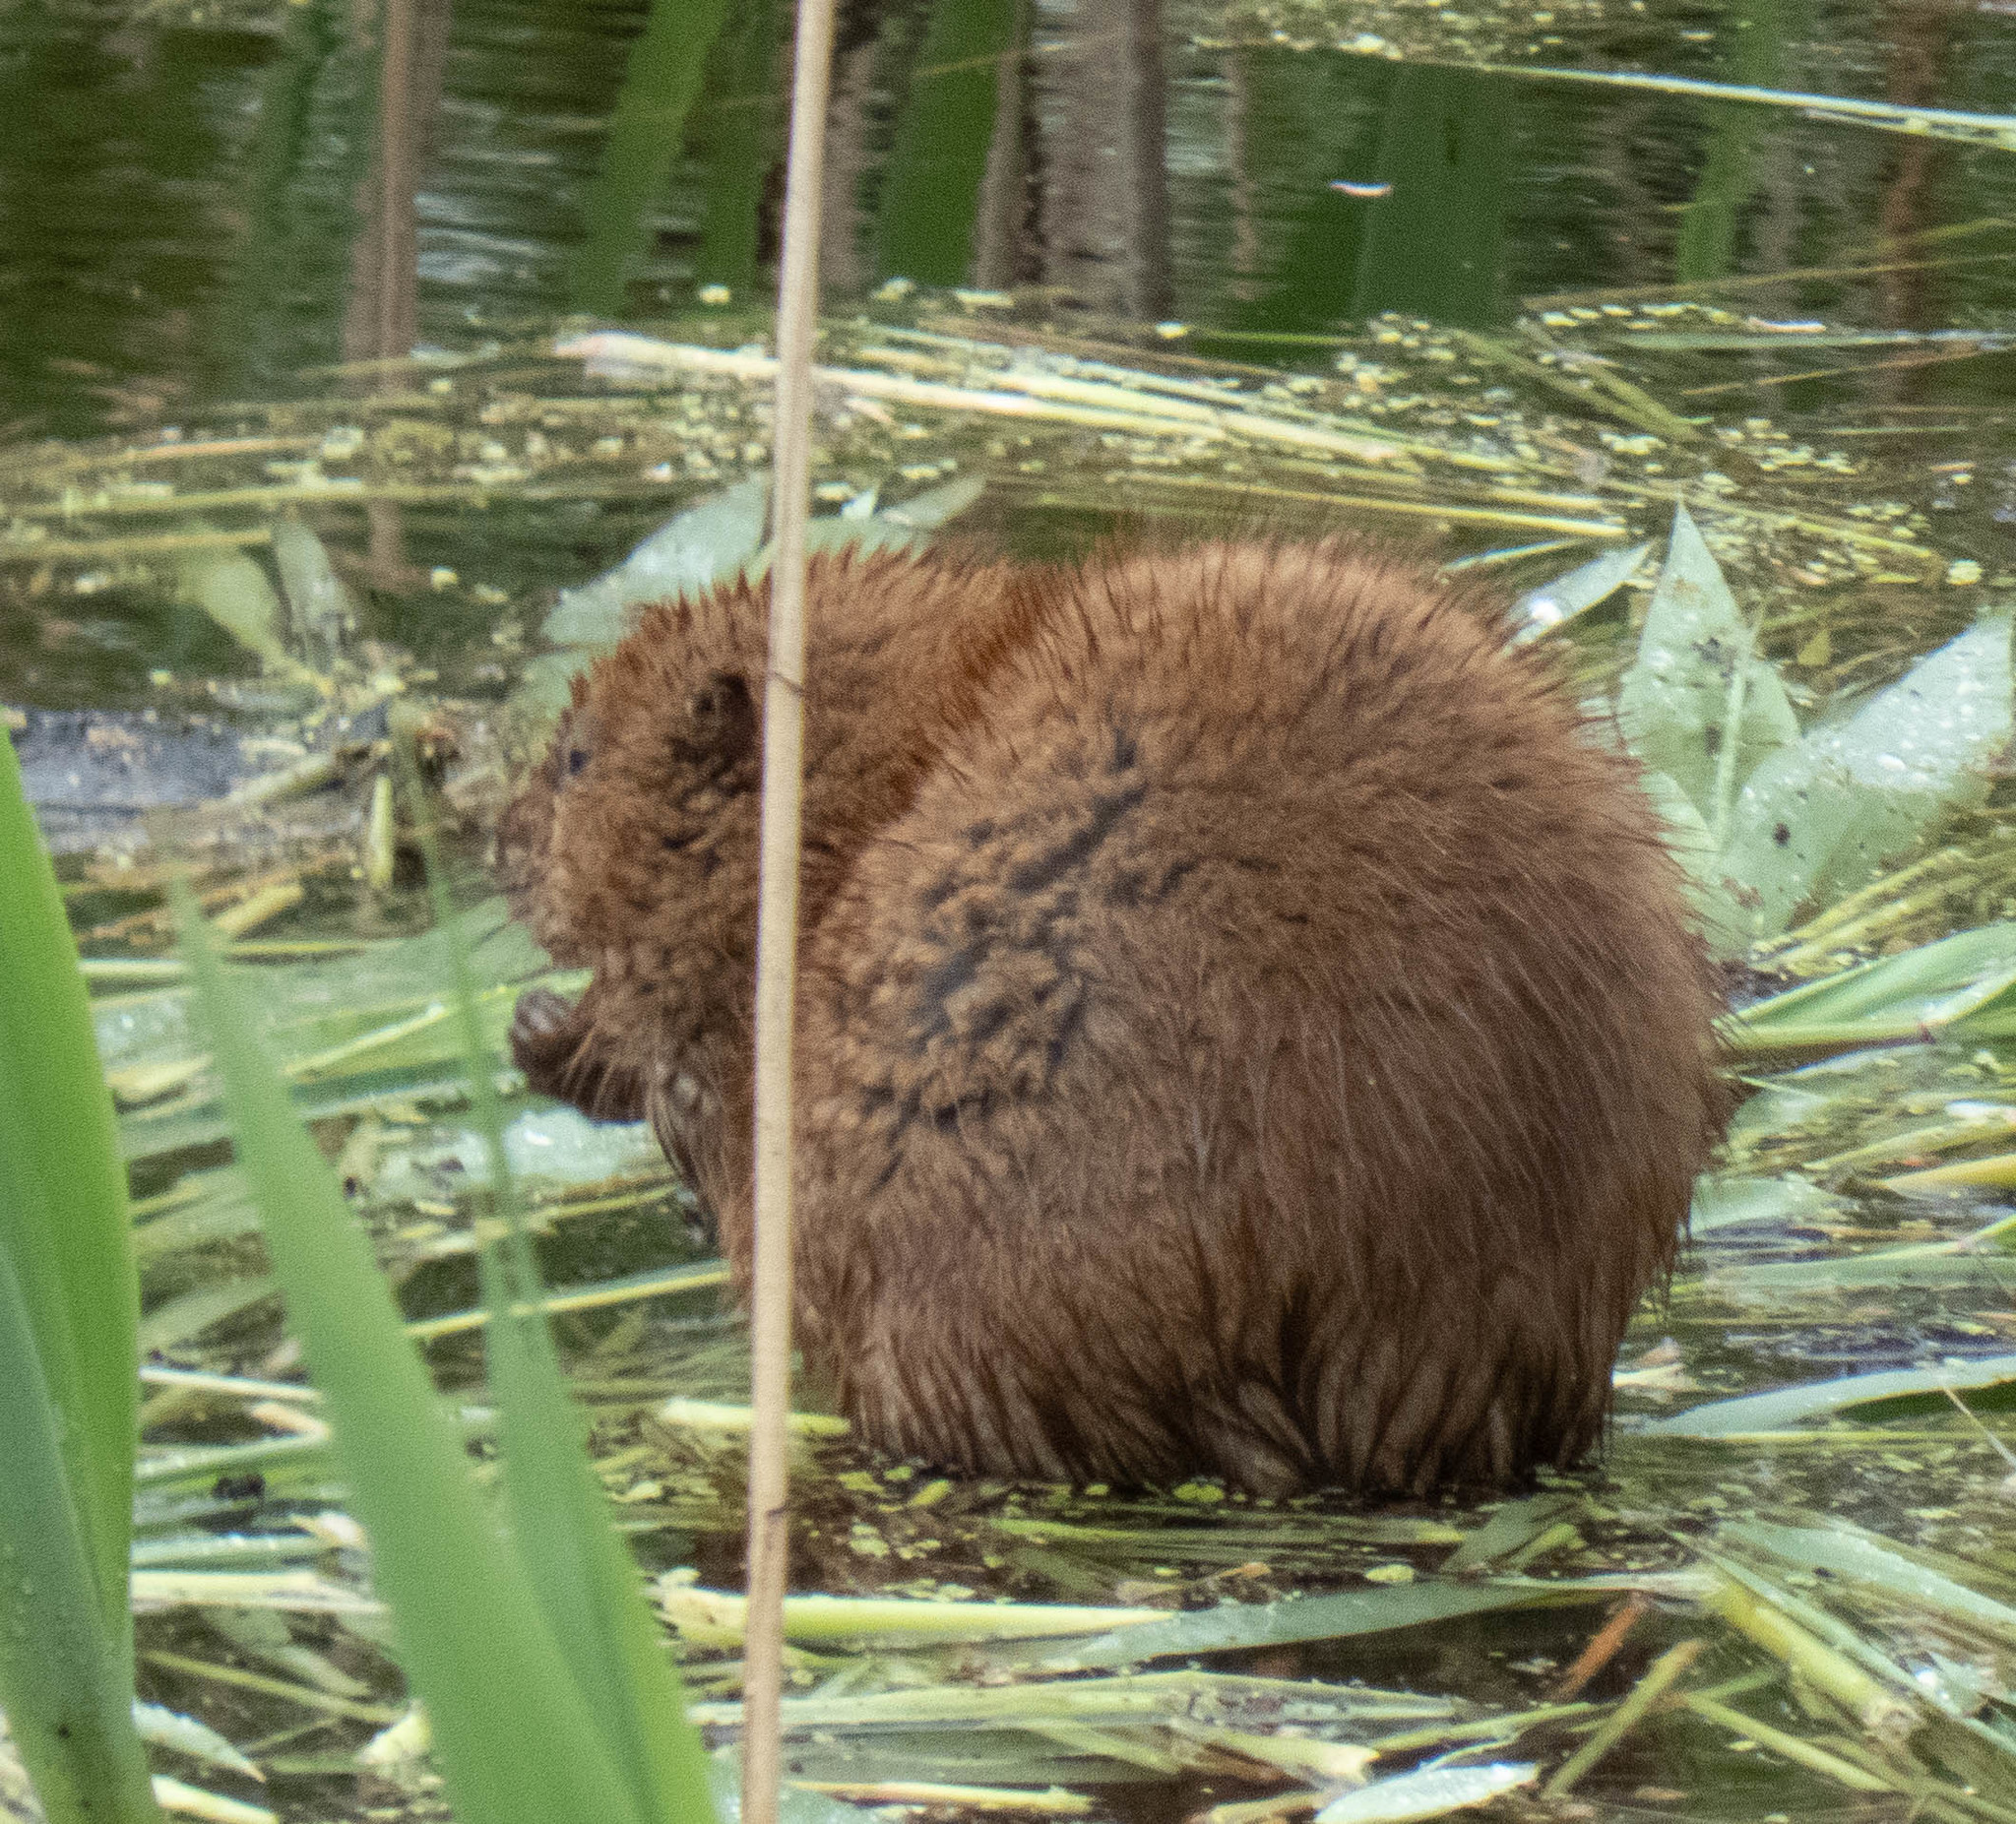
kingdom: Animalia
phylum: Chordata
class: Mammalia
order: Rodentia
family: Cricetidae
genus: Ondatra
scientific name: Ondatra zibethicus
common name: Muskrat
